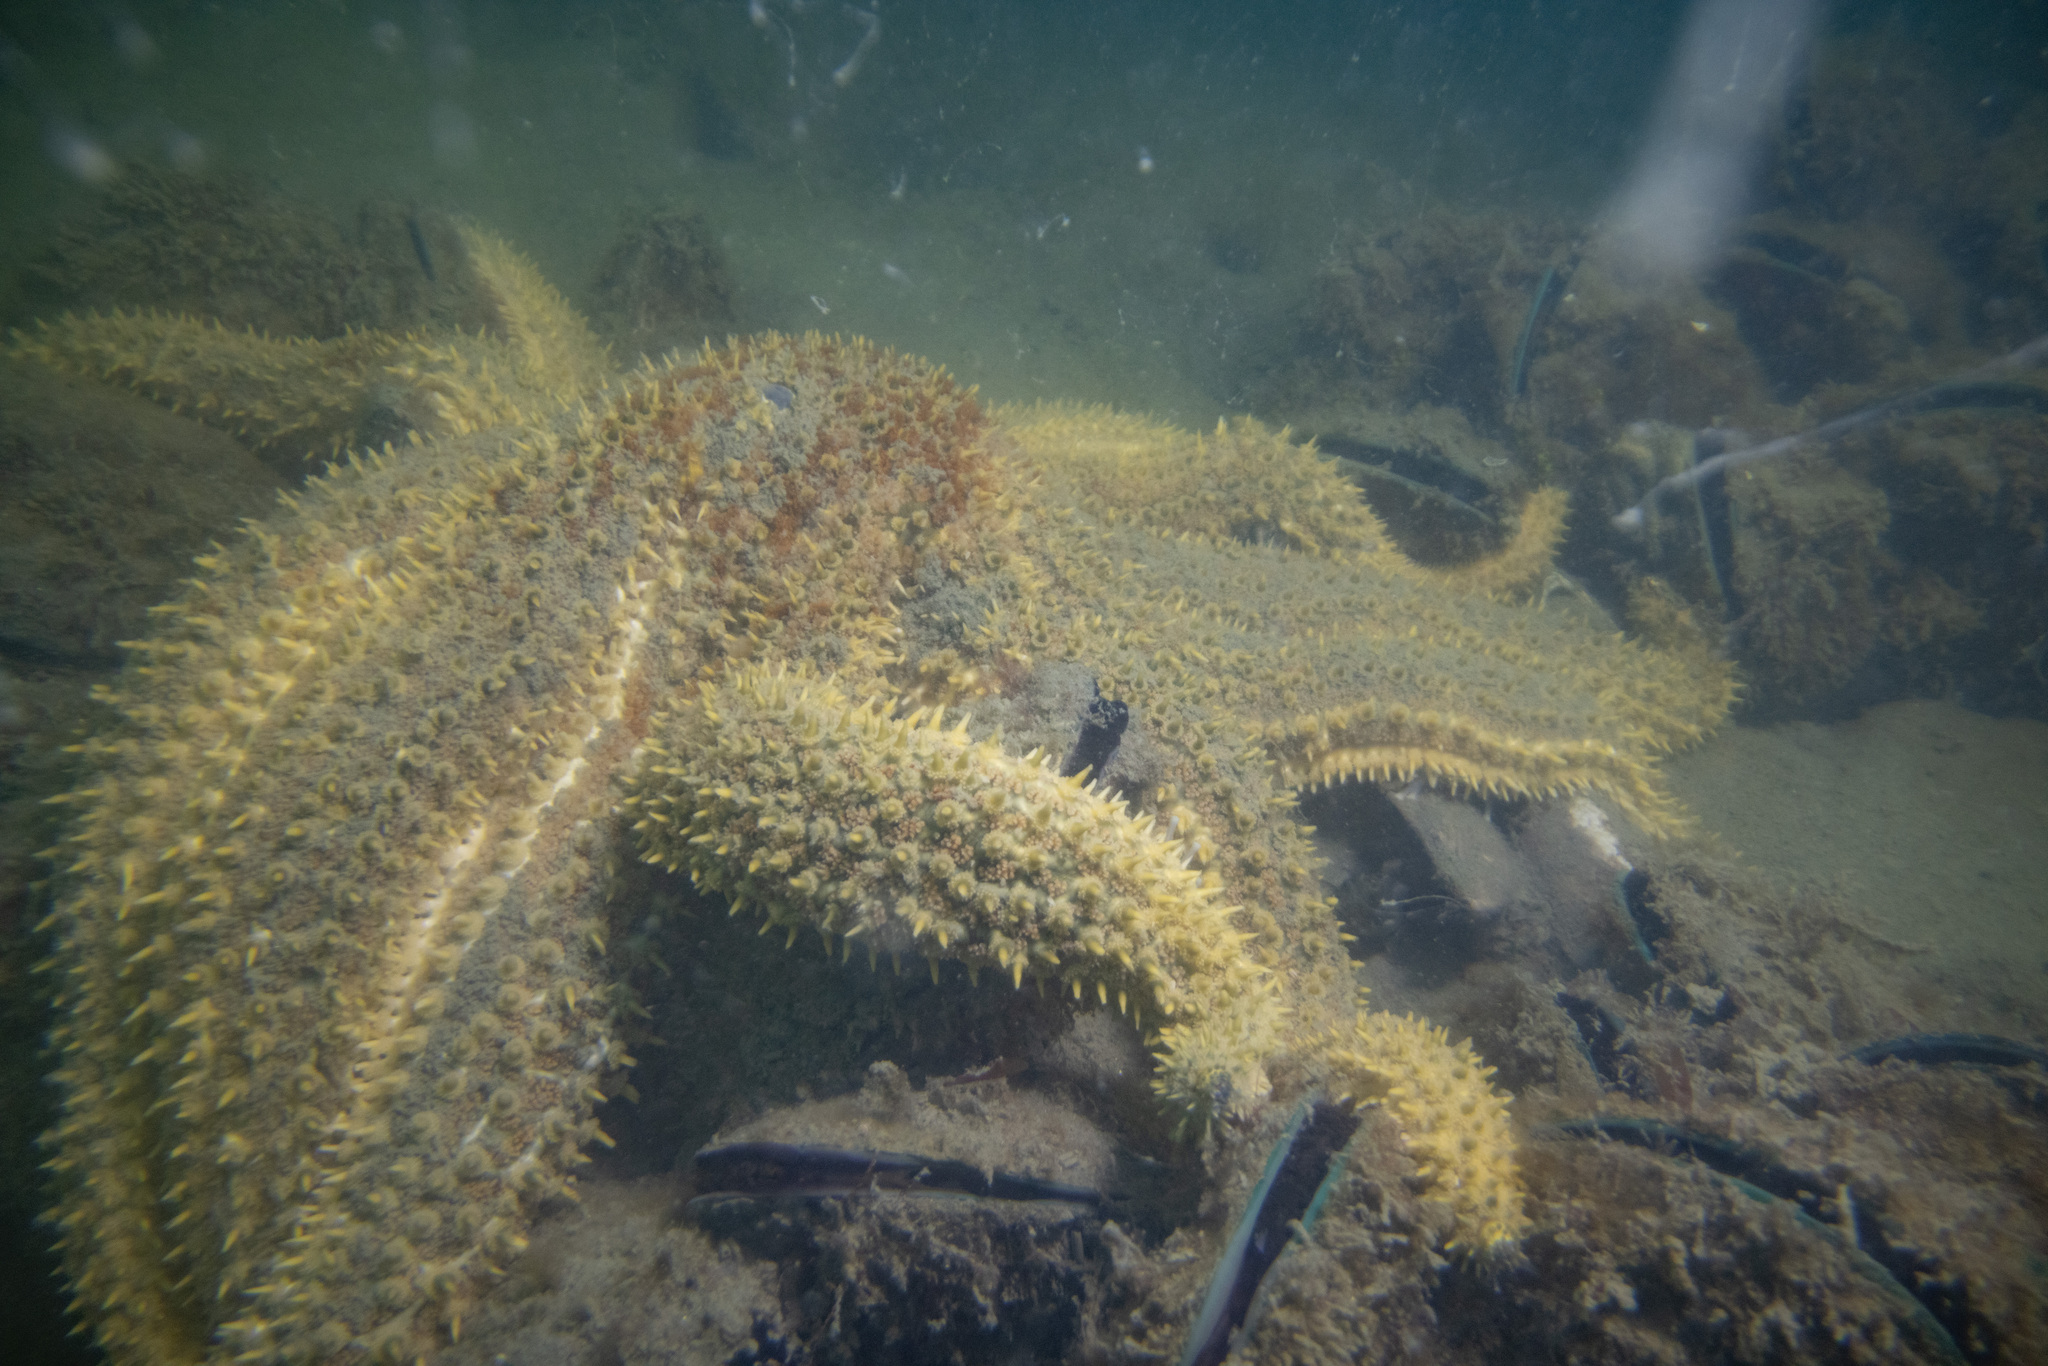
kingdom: Animalia
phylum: Echinodermata
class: Asteroidea
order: Forcipulatida
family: Asteriidae
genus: Coscinasterias
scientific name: Coscinasterias muricata
